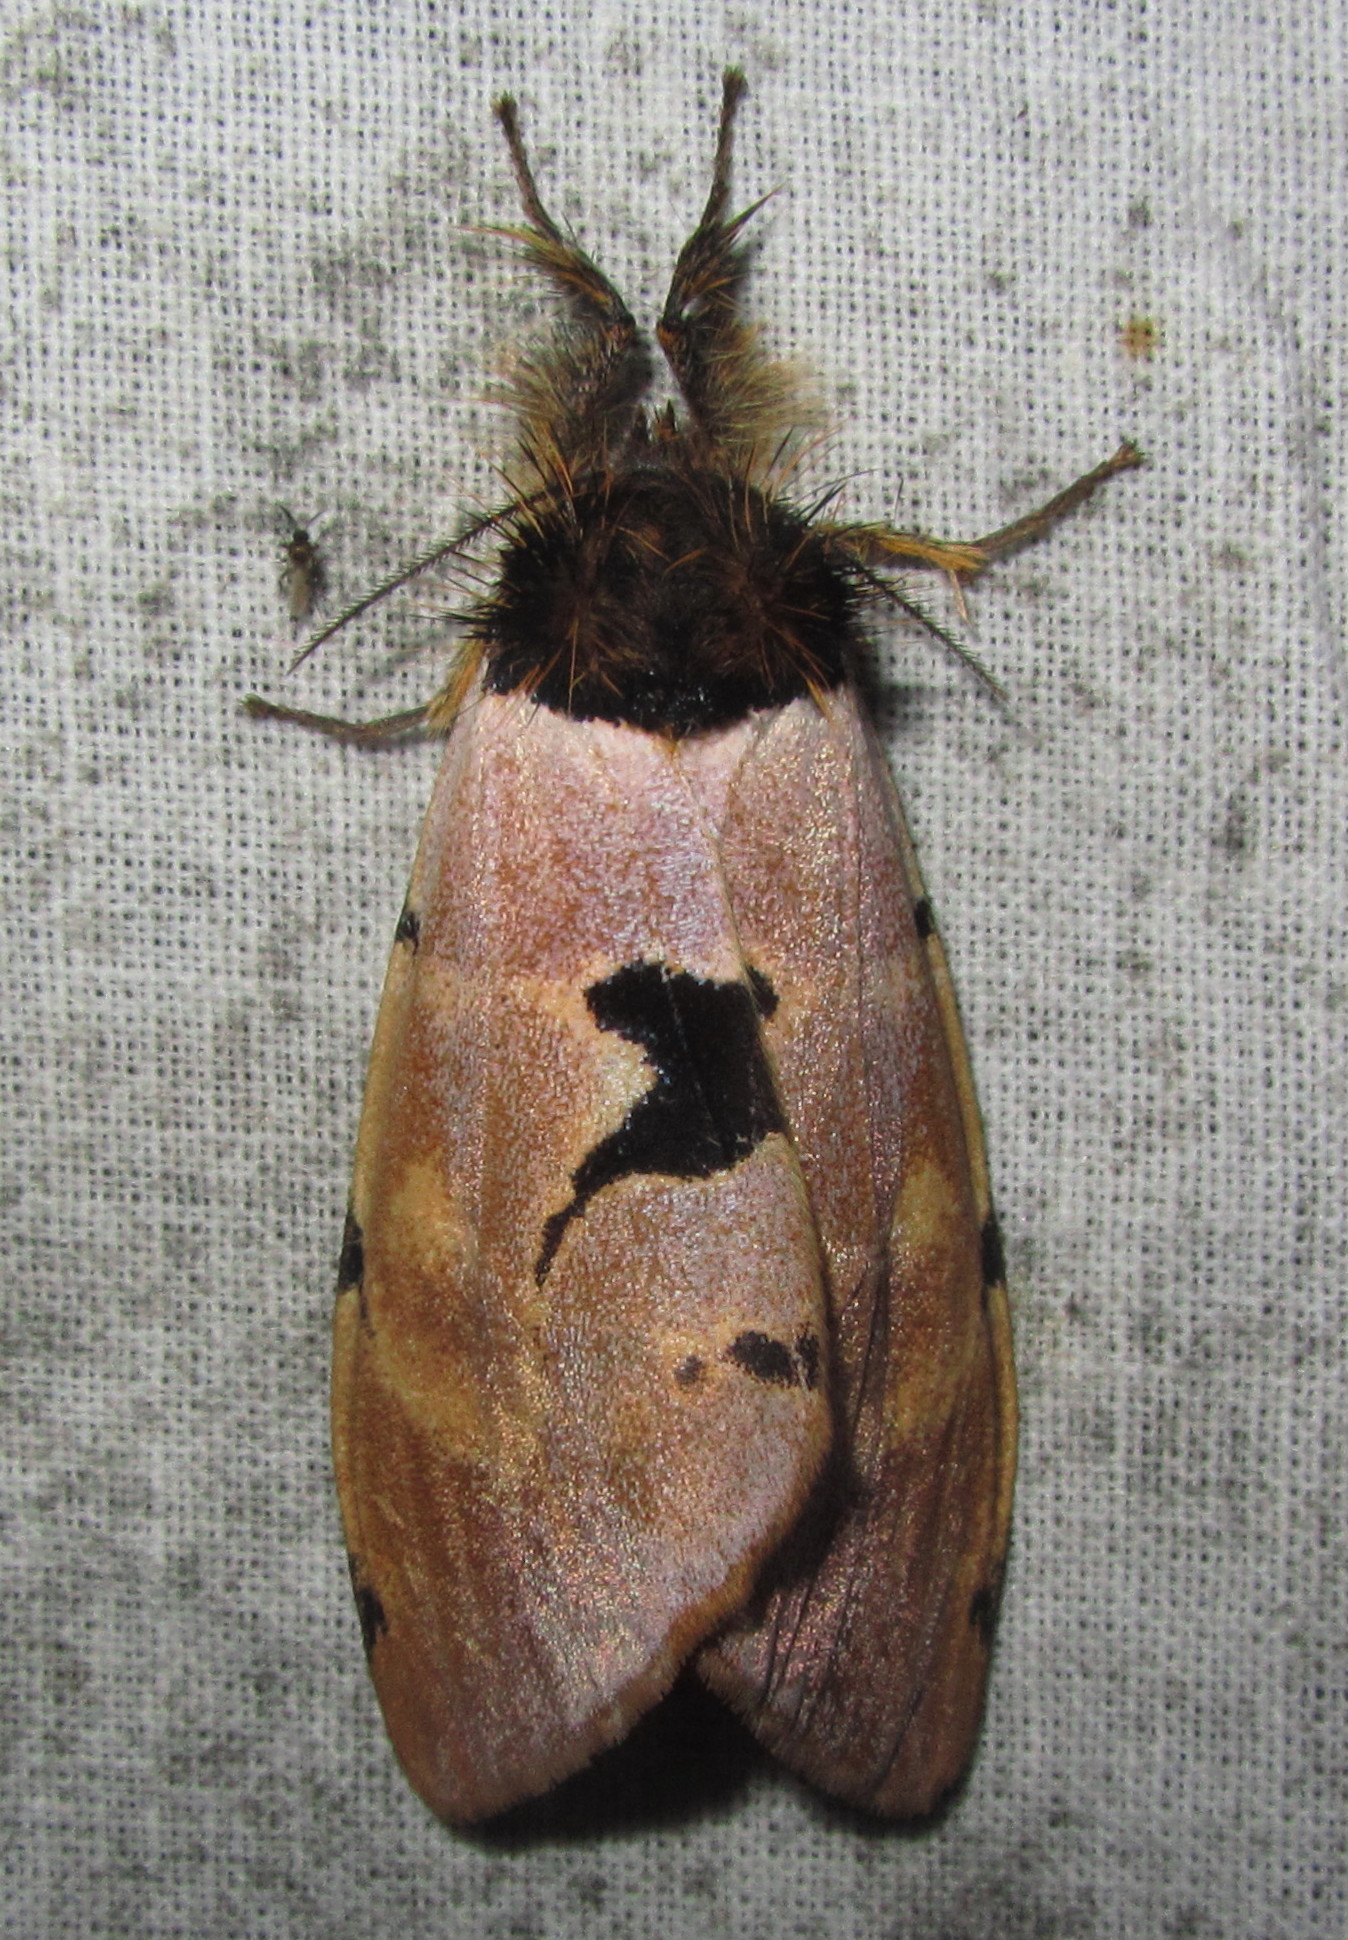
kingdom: Animalia
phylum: Arthropoda
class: Insecta
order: Lepidoptera
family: Erebidae
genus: Pida
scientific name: Pida
